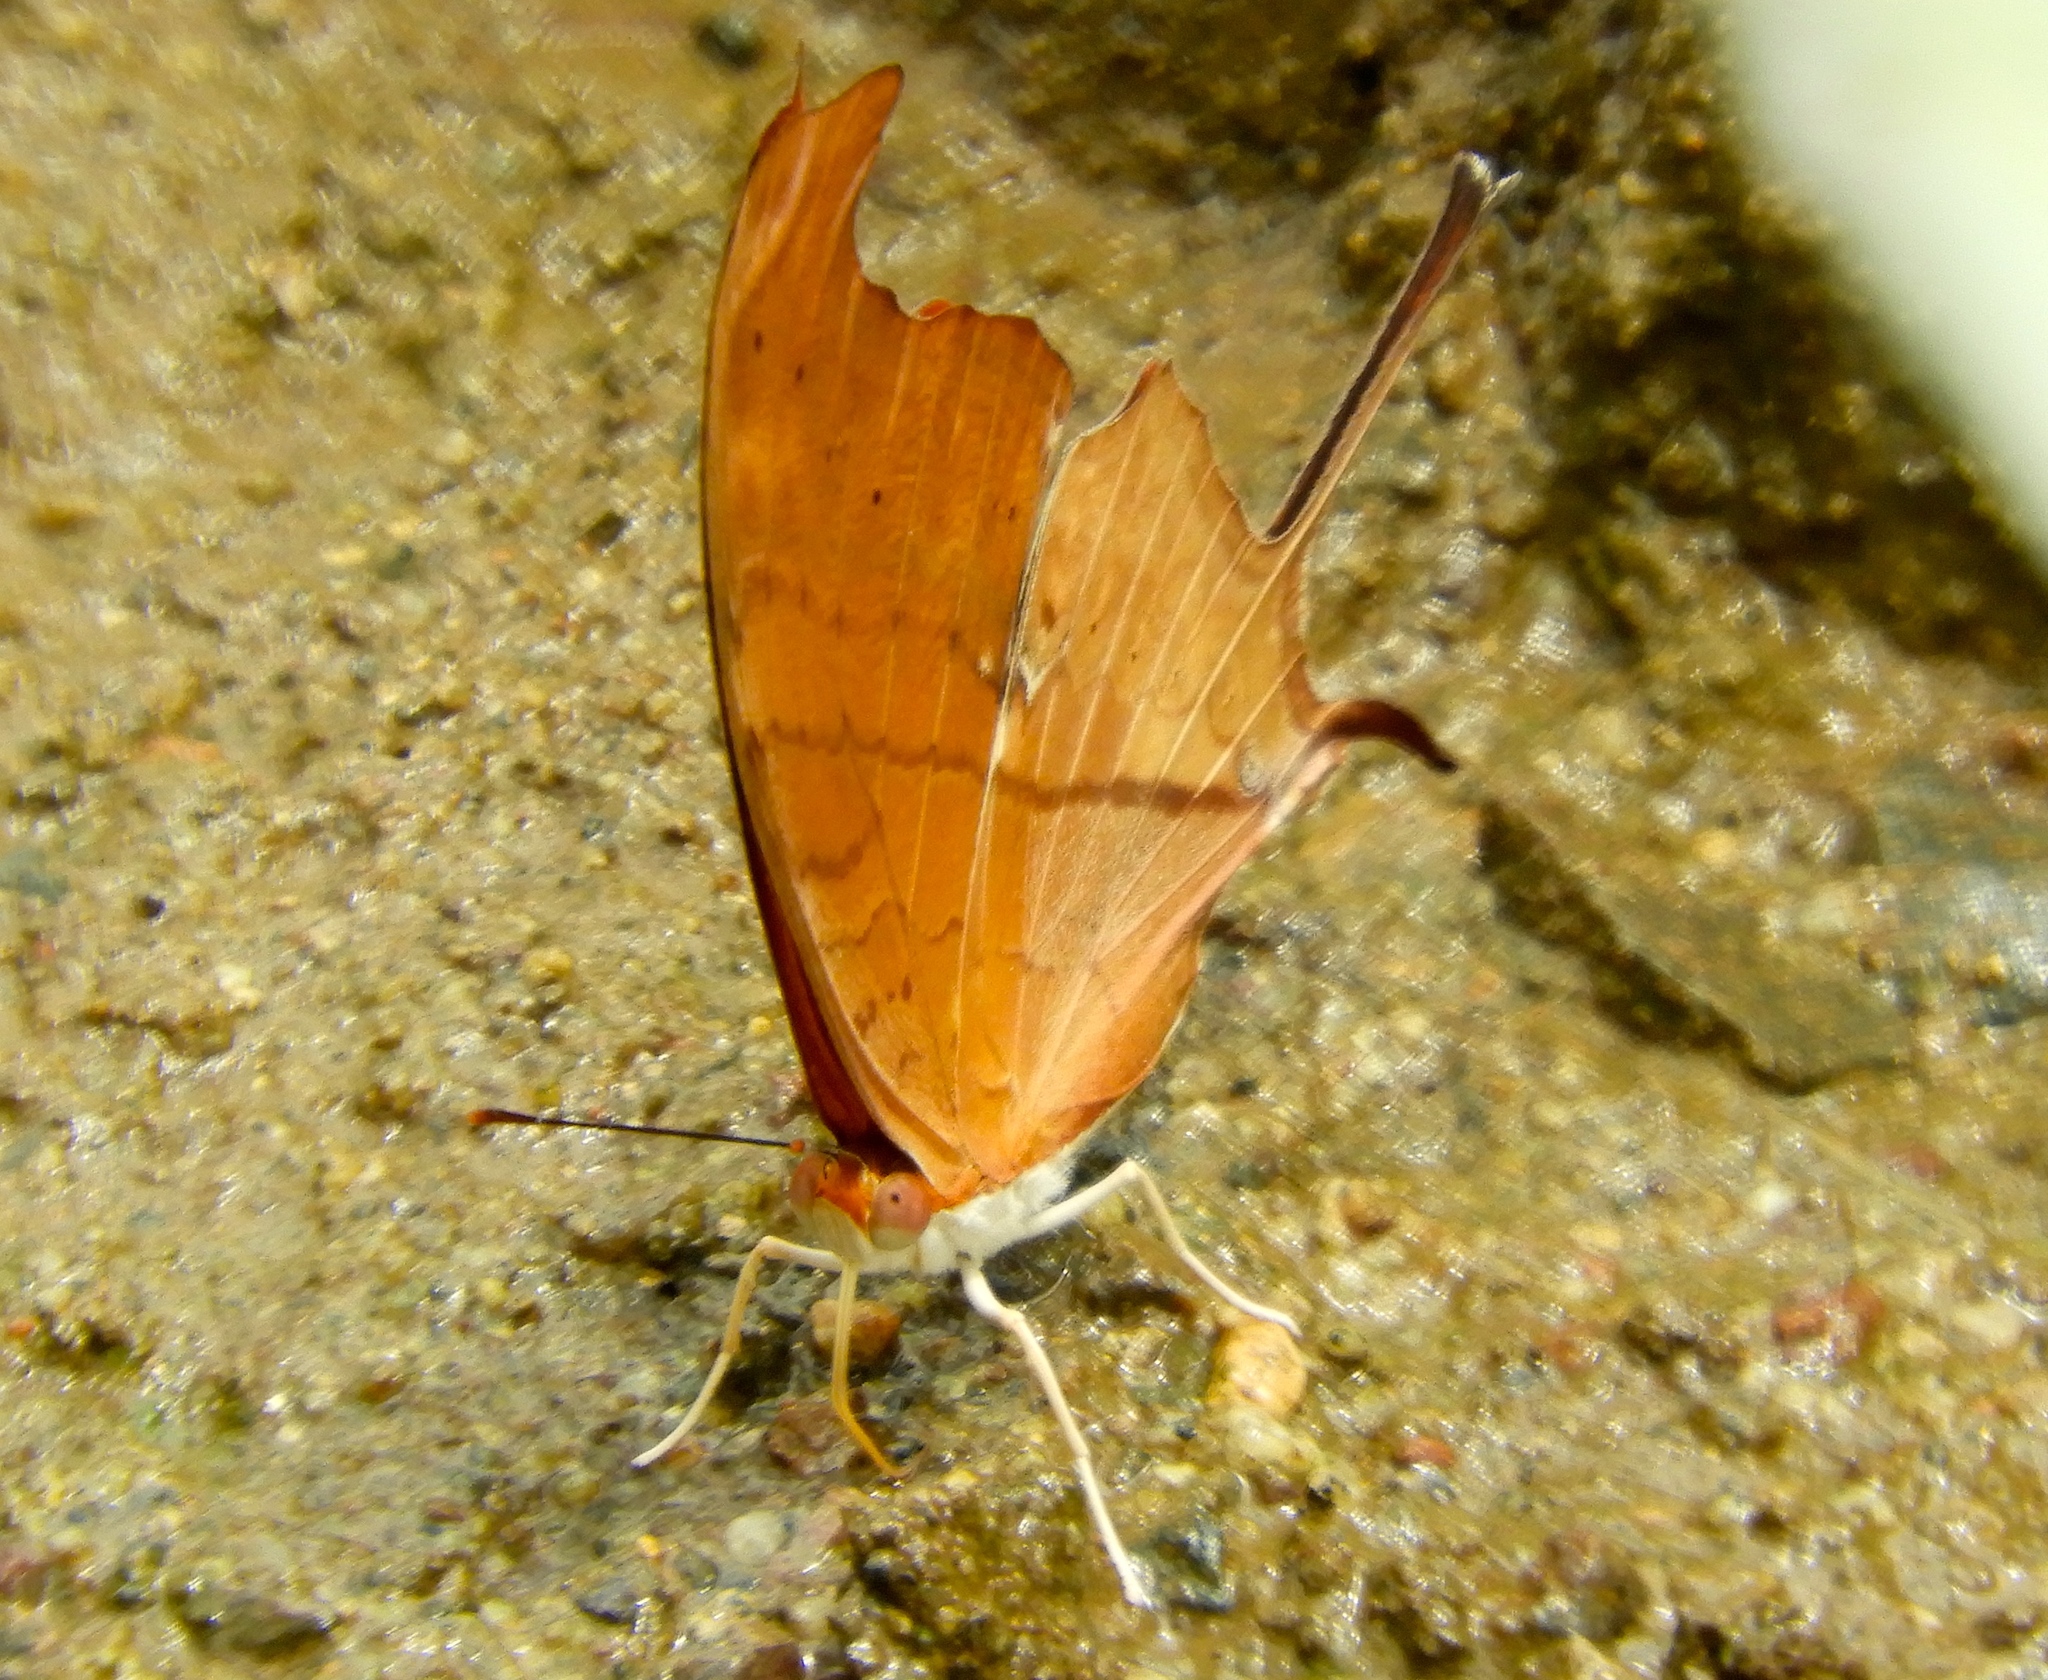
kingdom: Animalia
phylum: Arthropoda
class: Insecta
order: Lepidoptera
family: Nymphalidae
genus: Marpesia
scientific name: Marpesia petreus
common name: Red dagger wing
